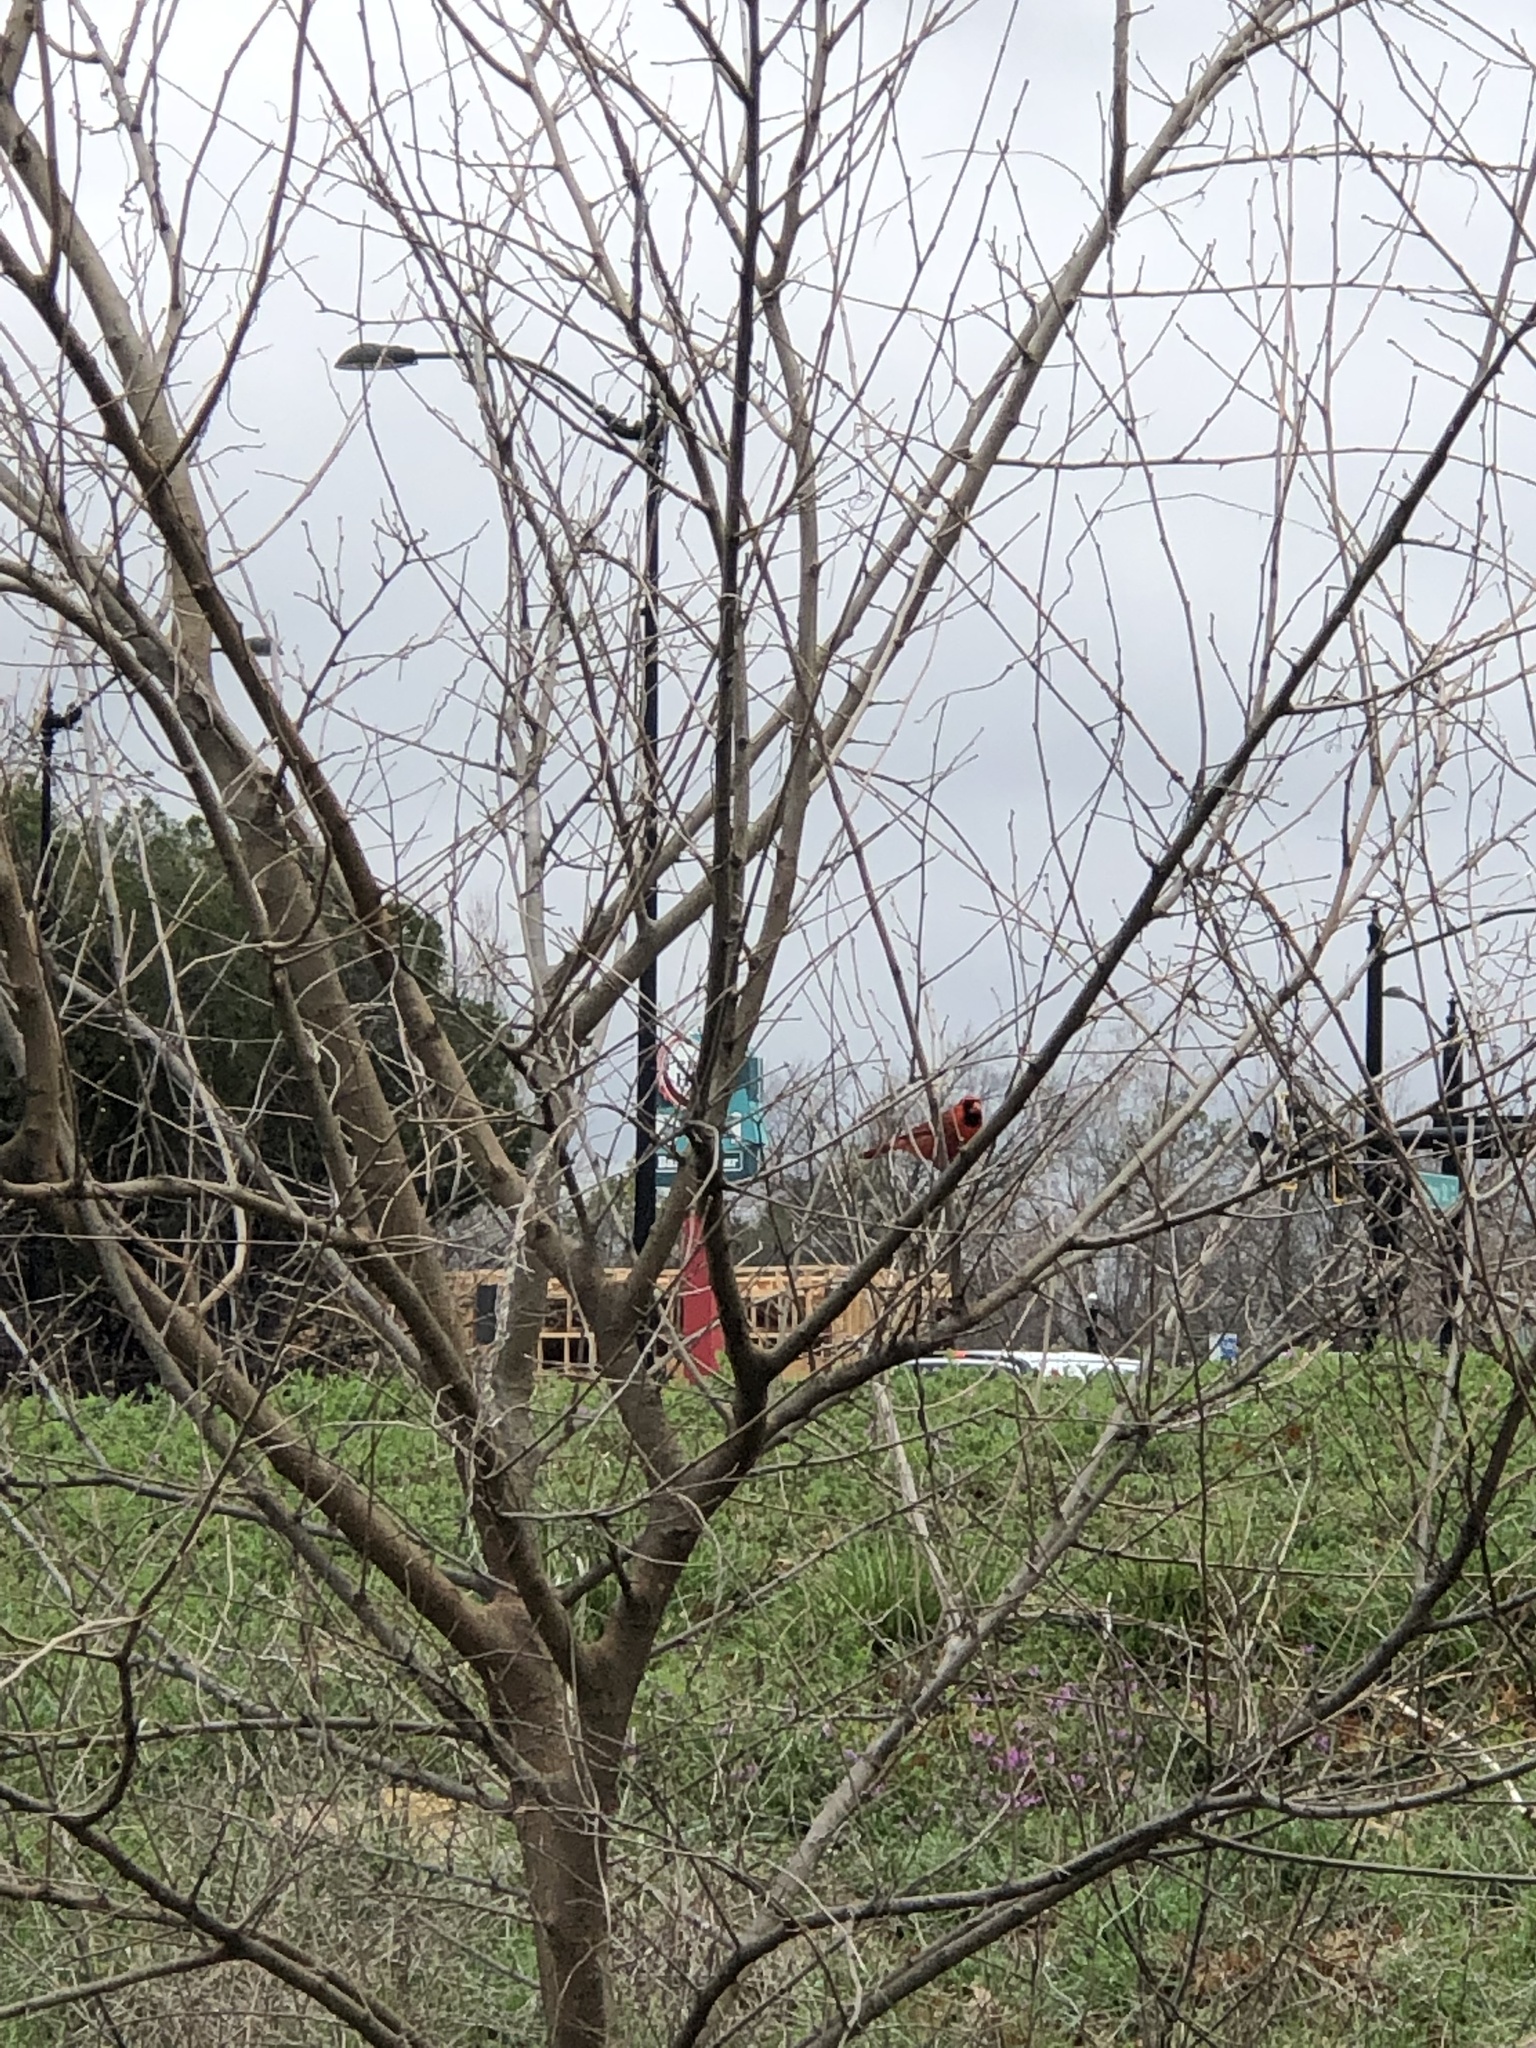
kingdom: Animalia
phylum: Chordata
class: Aves
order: Passeriformes
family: Cardinalidae
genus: Cardinalis
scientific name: Cardinalis cardinalis
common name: Northern cardinal
